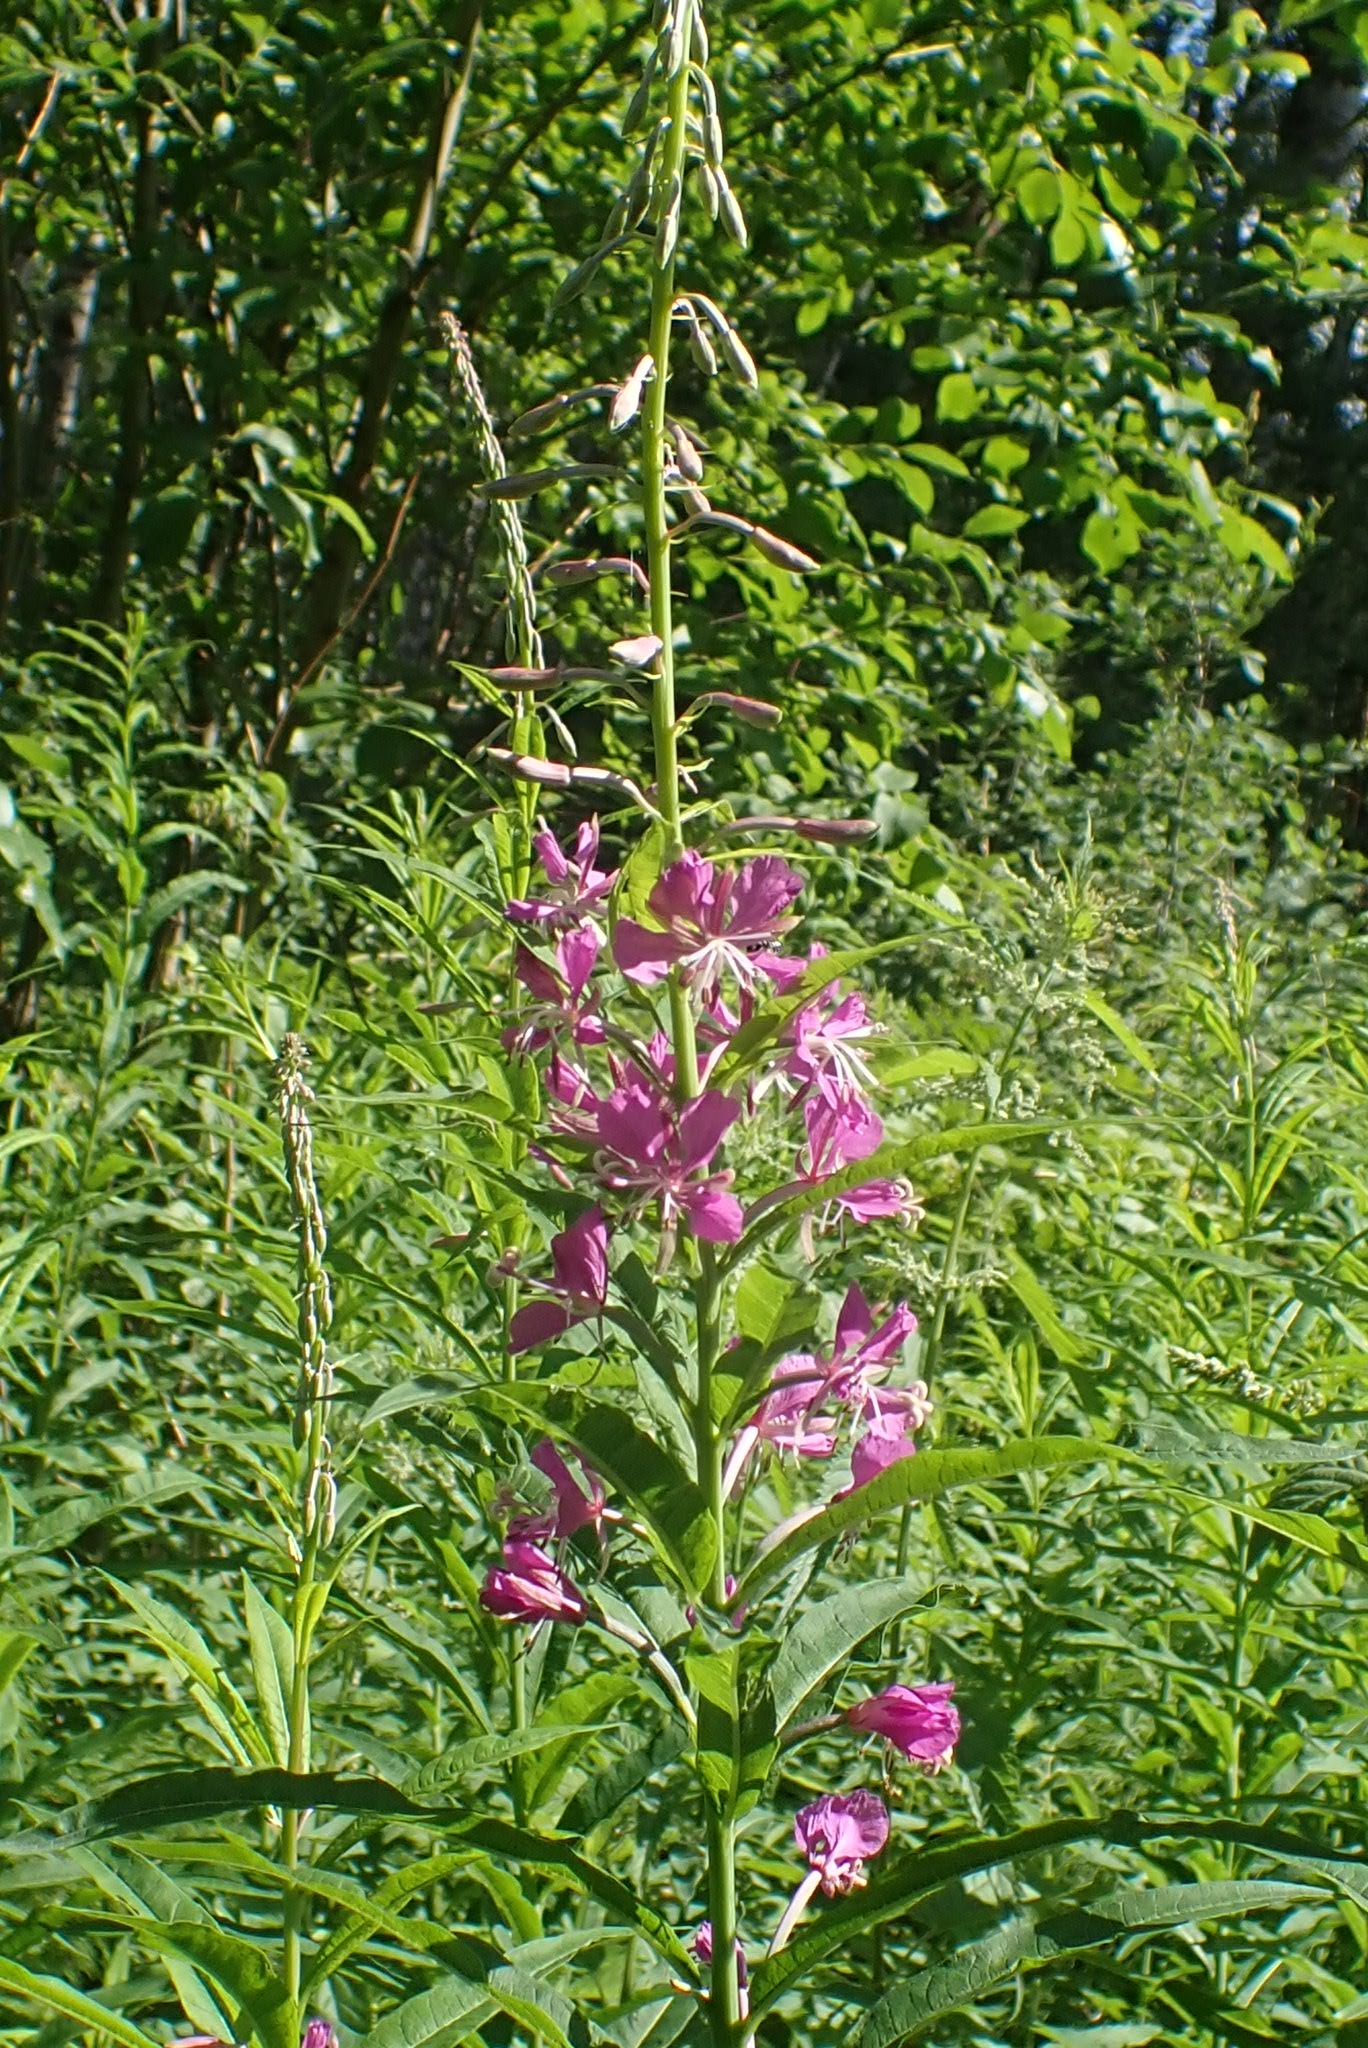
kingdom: Plantae
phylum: Tracheophyta
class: Magnoliopsida
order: Myrtales
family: Onagraceae
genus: Chamaenerion
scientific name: Chamaenerion angustifolium
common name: Fireweed
